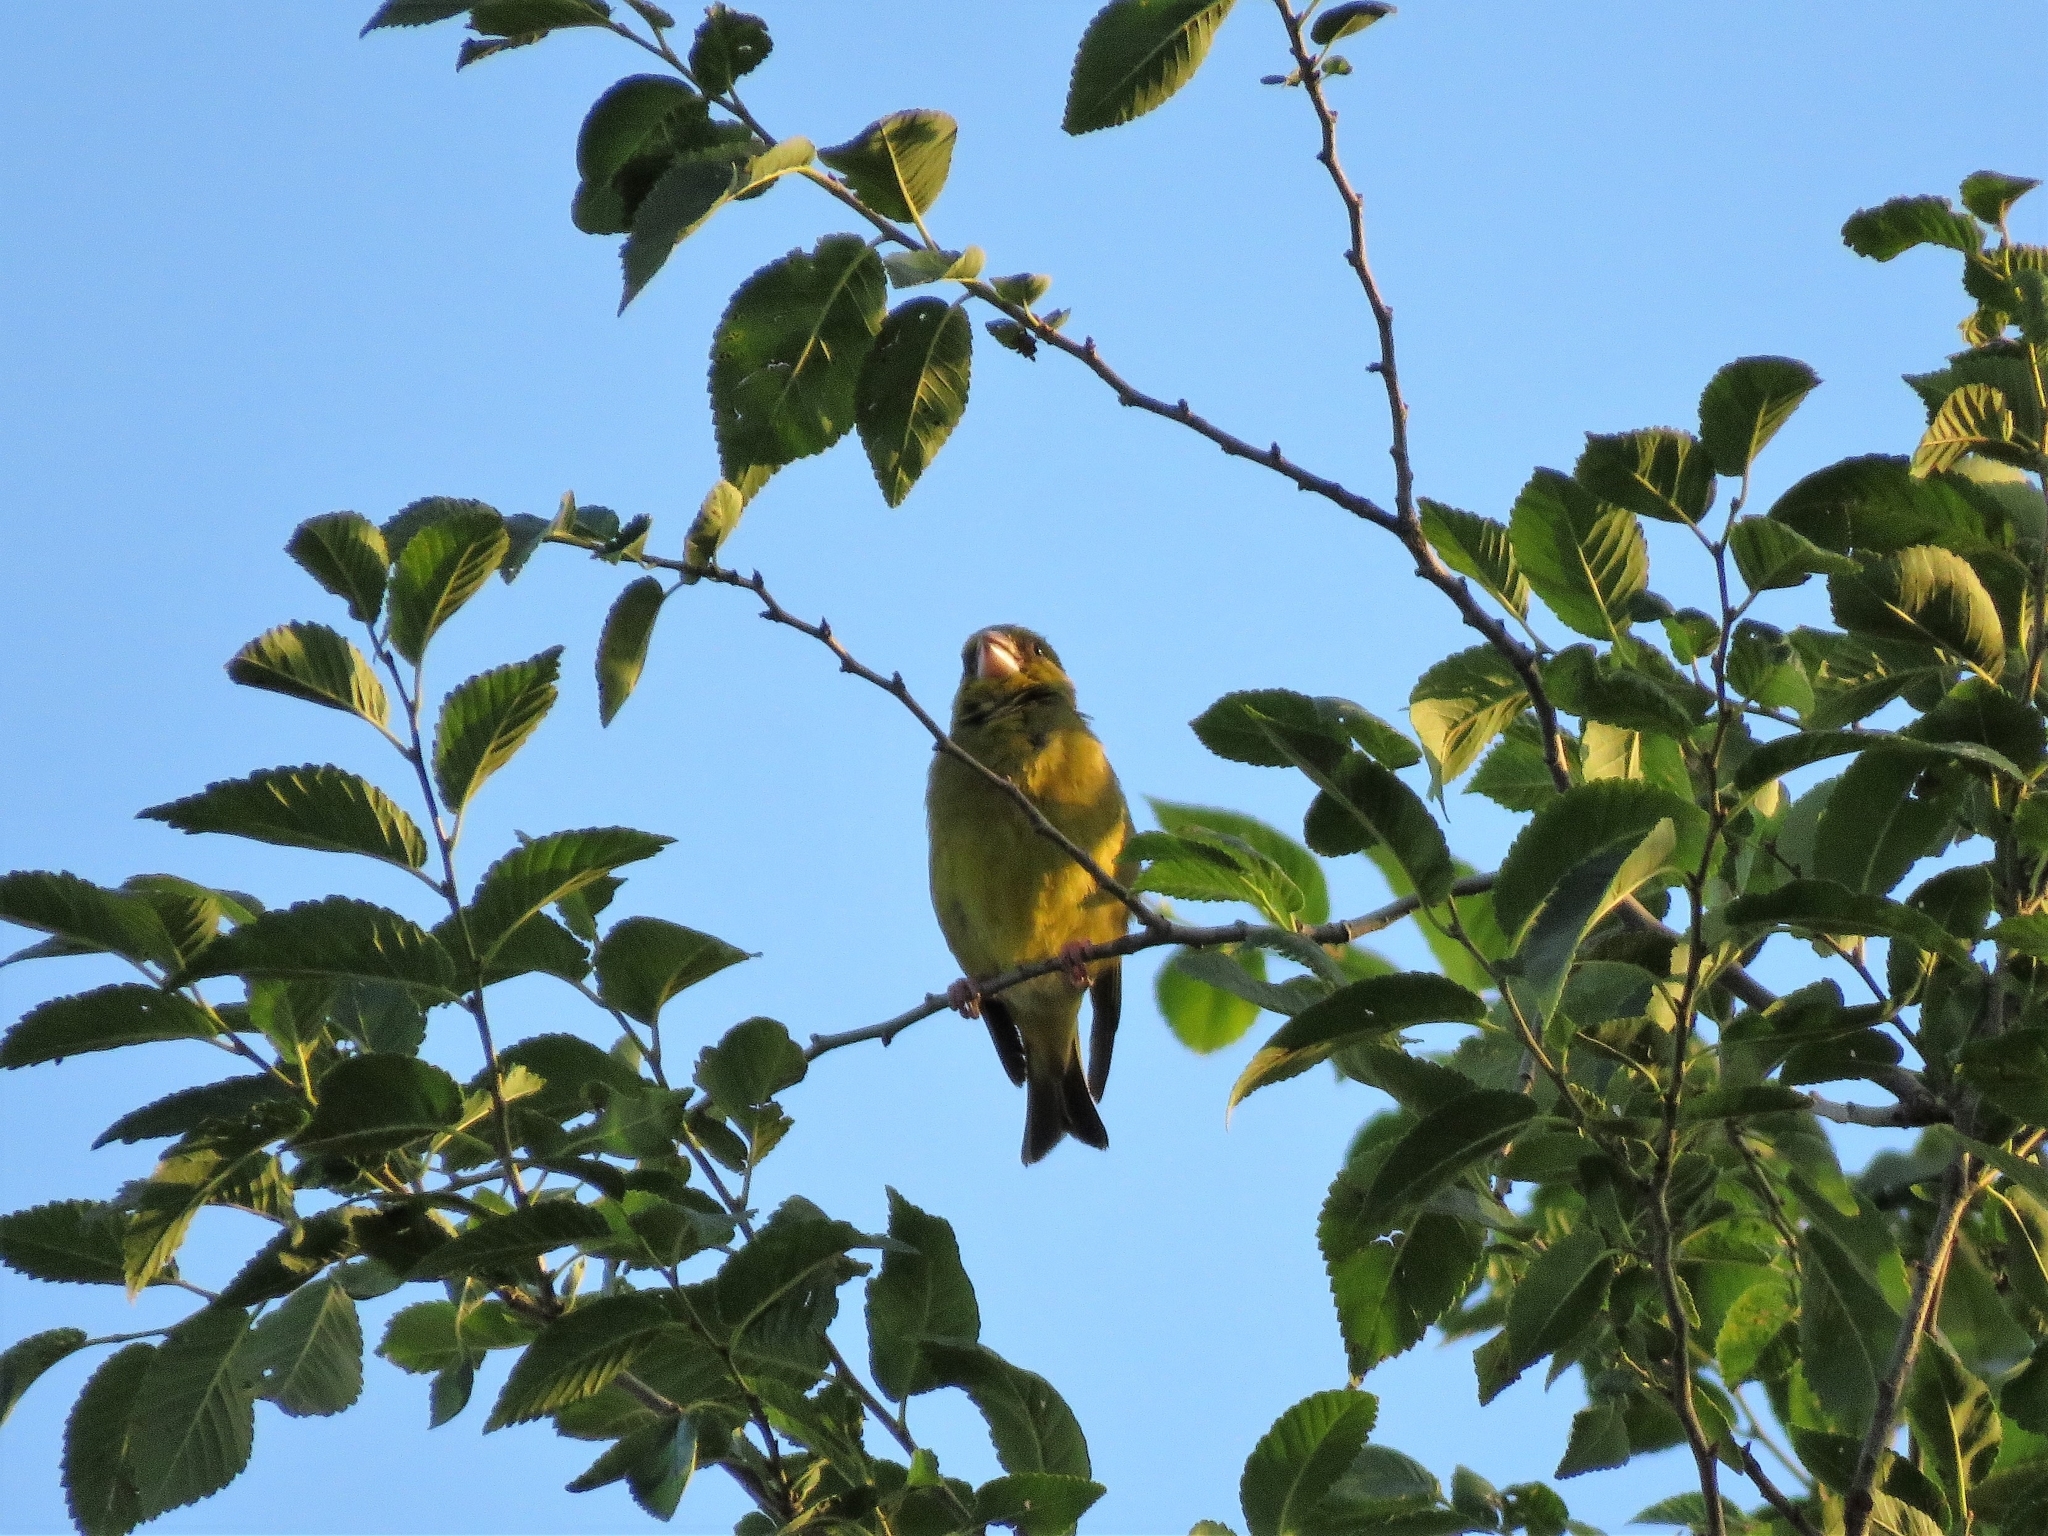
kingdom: Plantae
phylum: Tracheophyta
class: Liliopsida
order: Poales
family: Poaceae
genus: Chloris
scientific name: Chloris chloris
